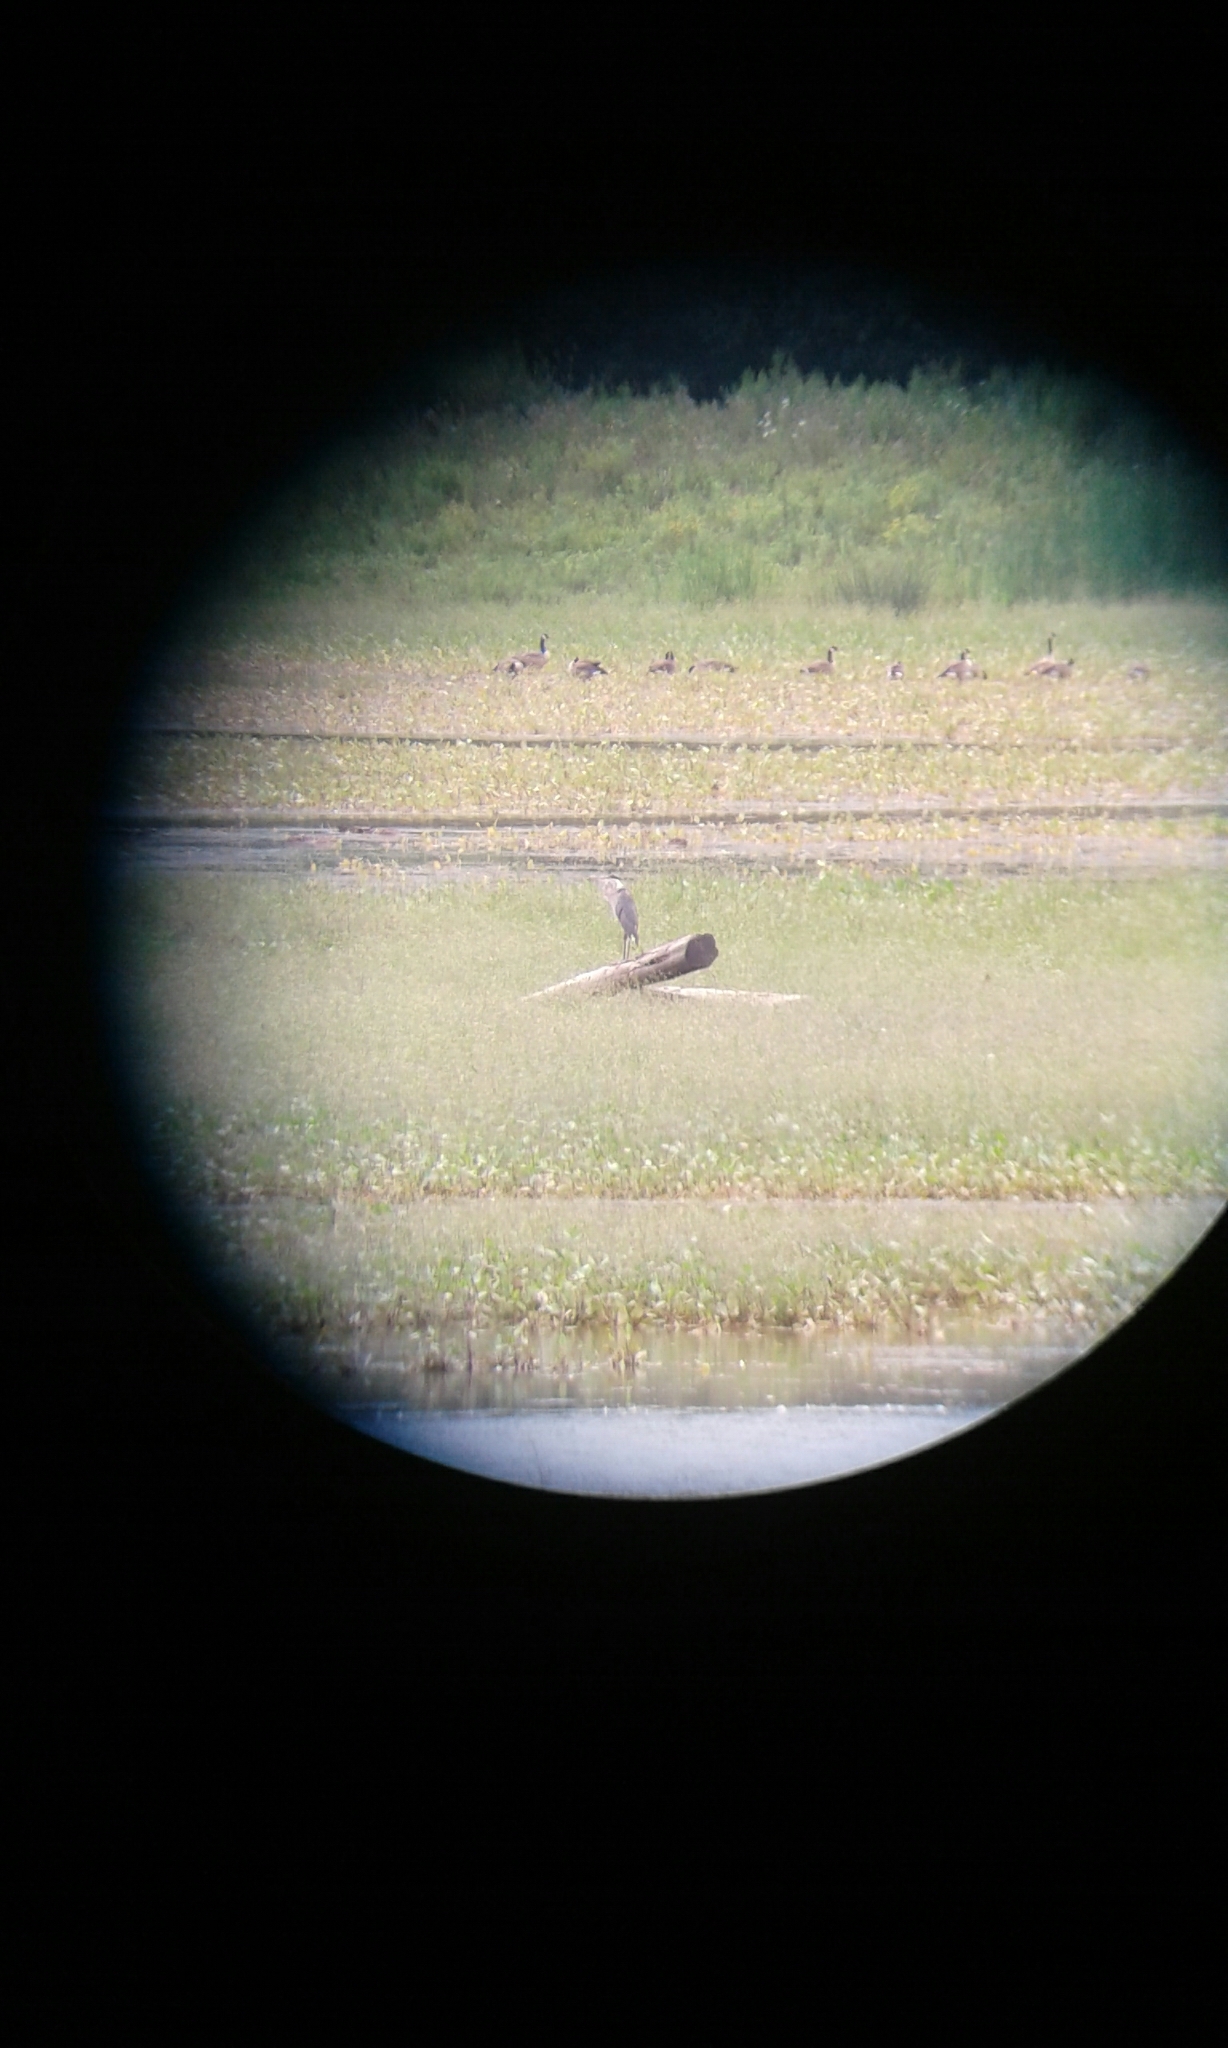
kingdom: Animalia
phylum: Chordata
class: Aves
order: Pelecaniformes
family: Ardeidae
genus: Ardea
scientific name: Ardea herodias
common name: Great blue heron
